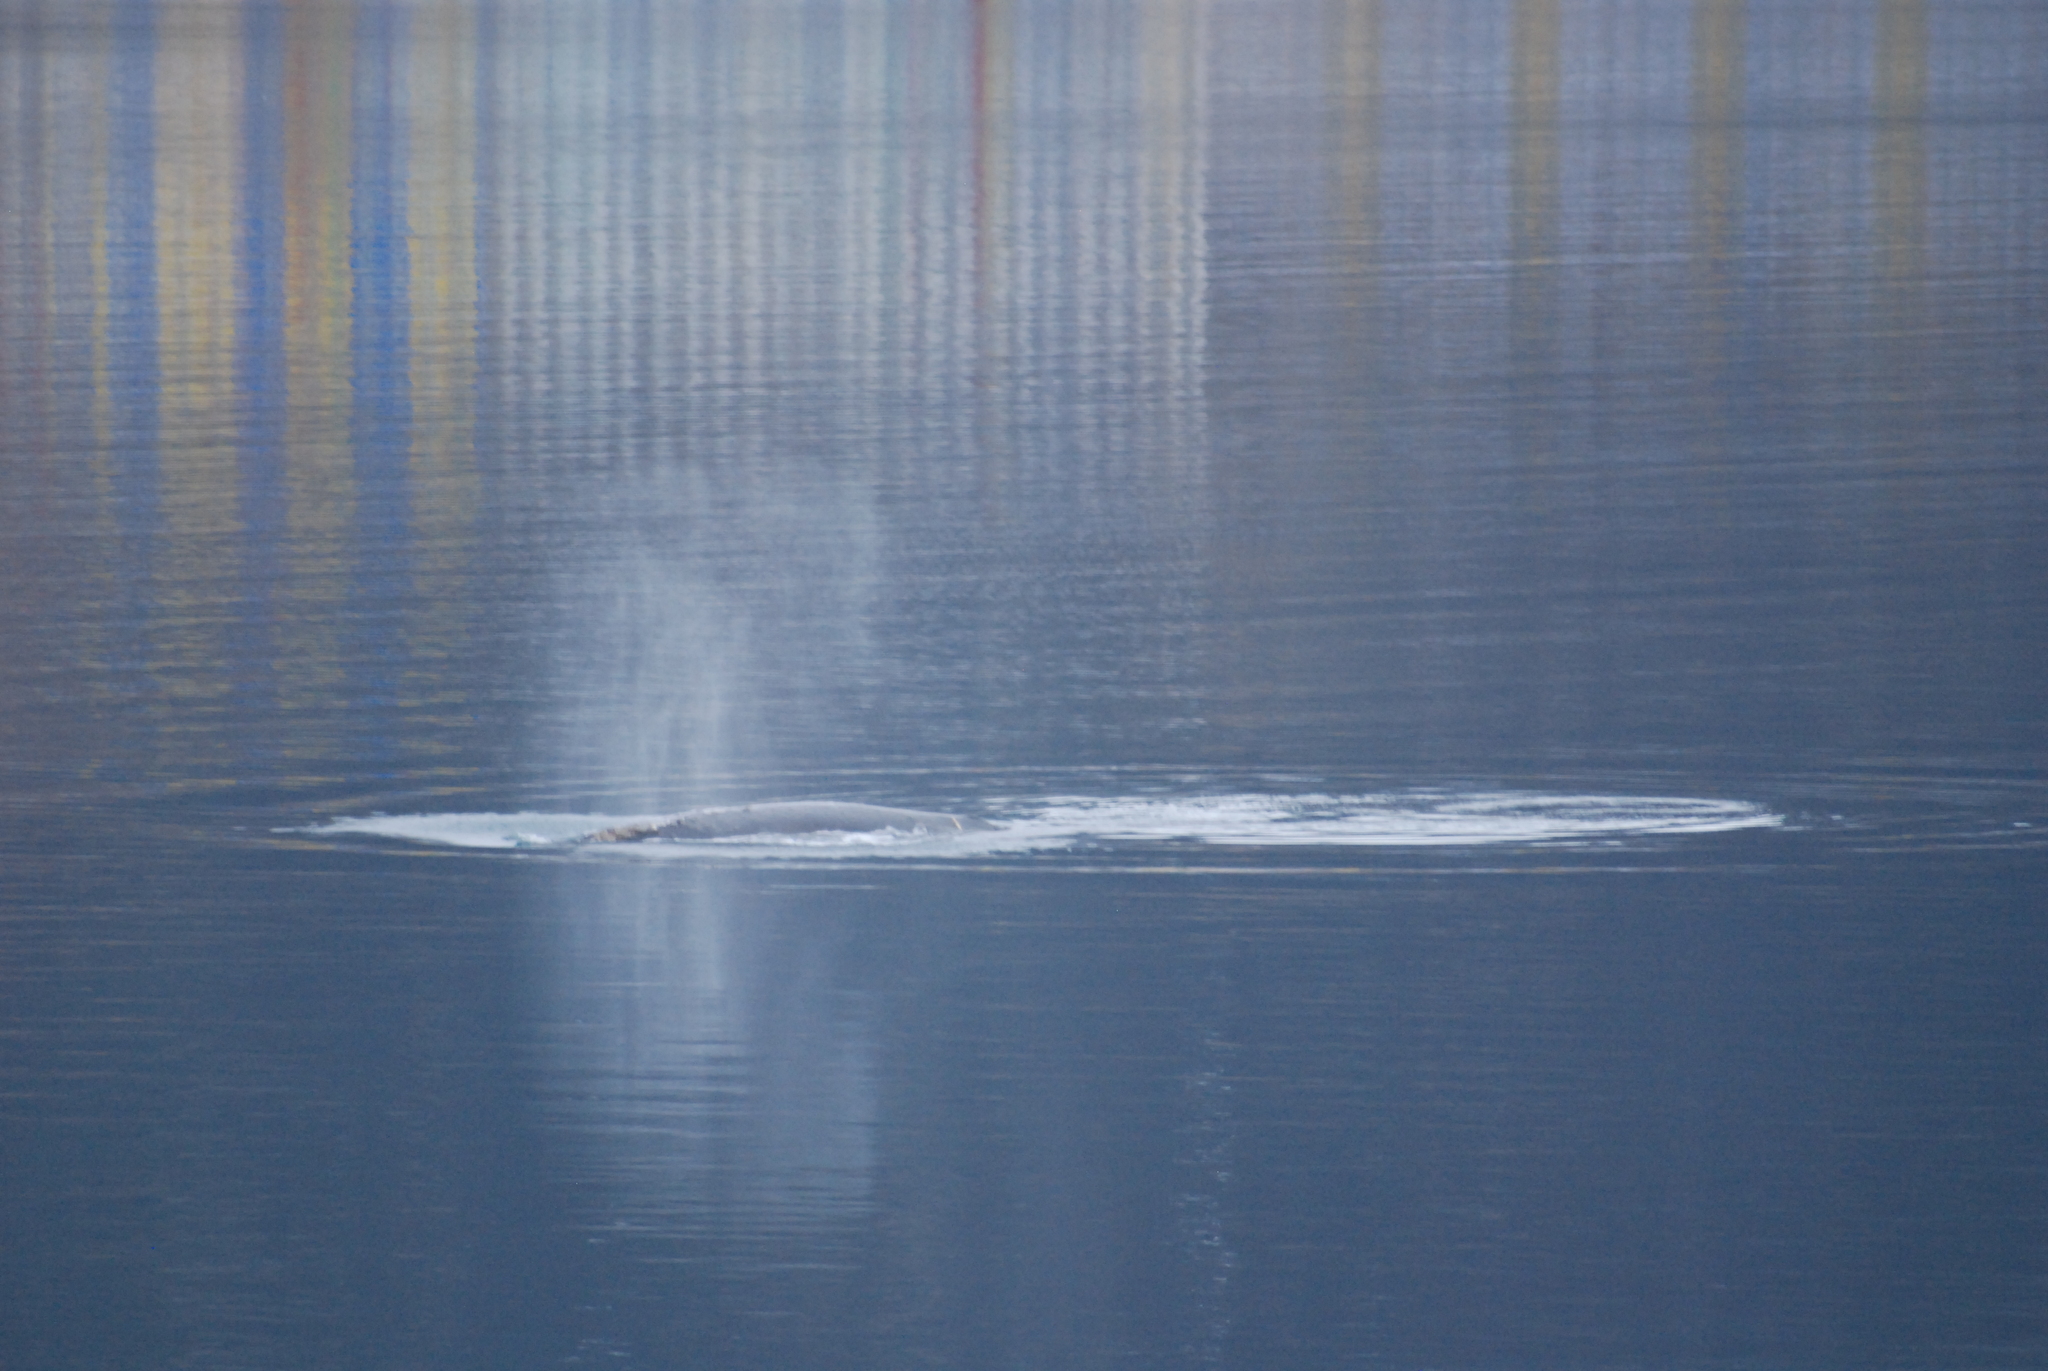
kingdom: Animalia
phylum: Chordata
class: Mammalia
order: Cetacea
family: Eschrichtiidae
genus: Eschrichtius
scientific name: Eschrichtius robustus
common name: Gray whale
